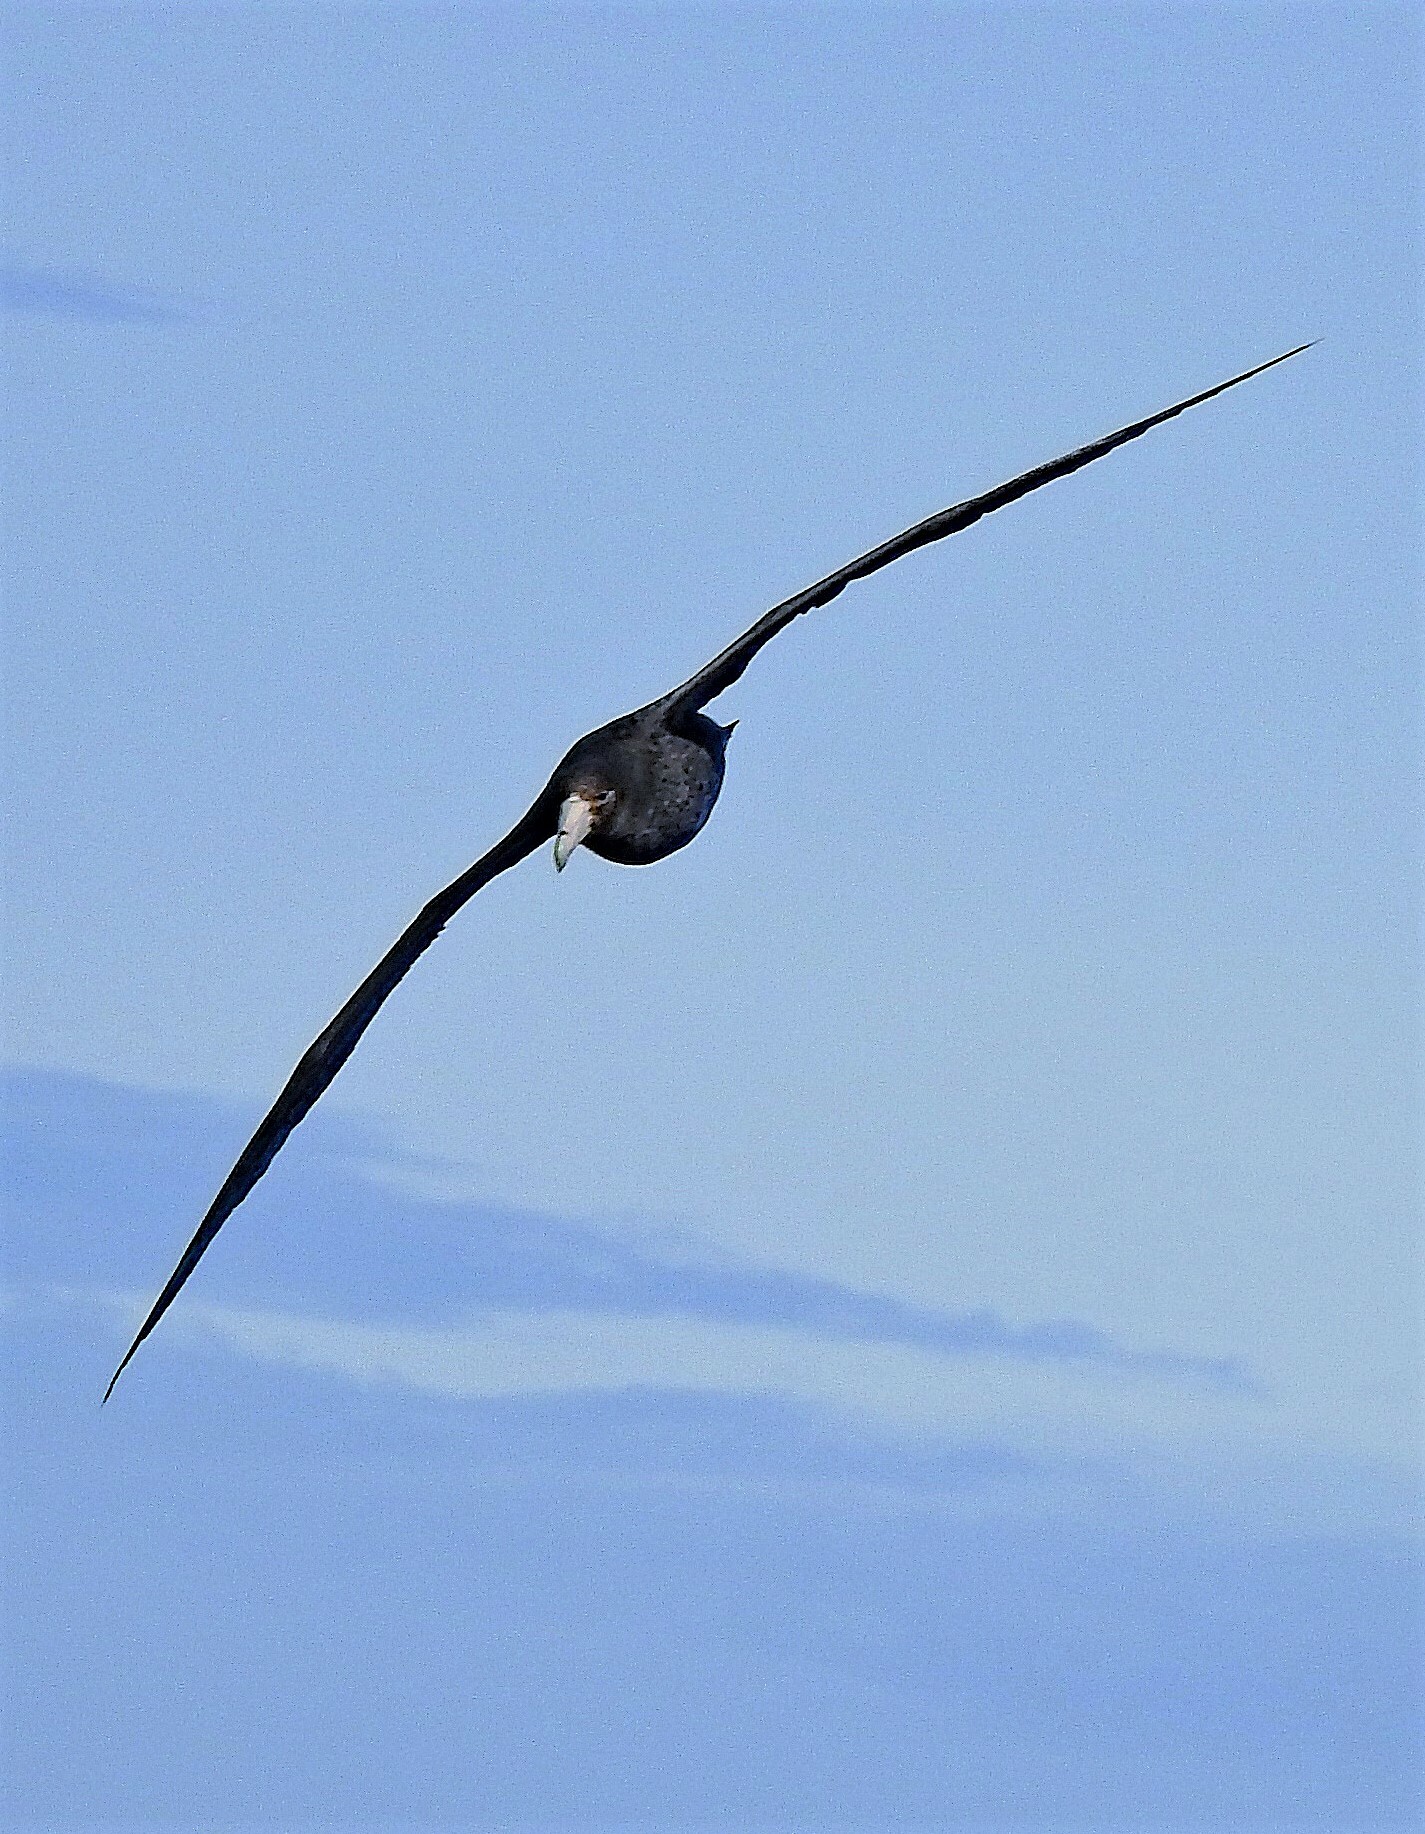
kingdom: Animalia
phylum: Chordata
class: Aves
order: Procellariiformes
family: Procellariidae
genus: Macronectes
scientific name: Macronectes giganteus
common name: Southern giant petrel
